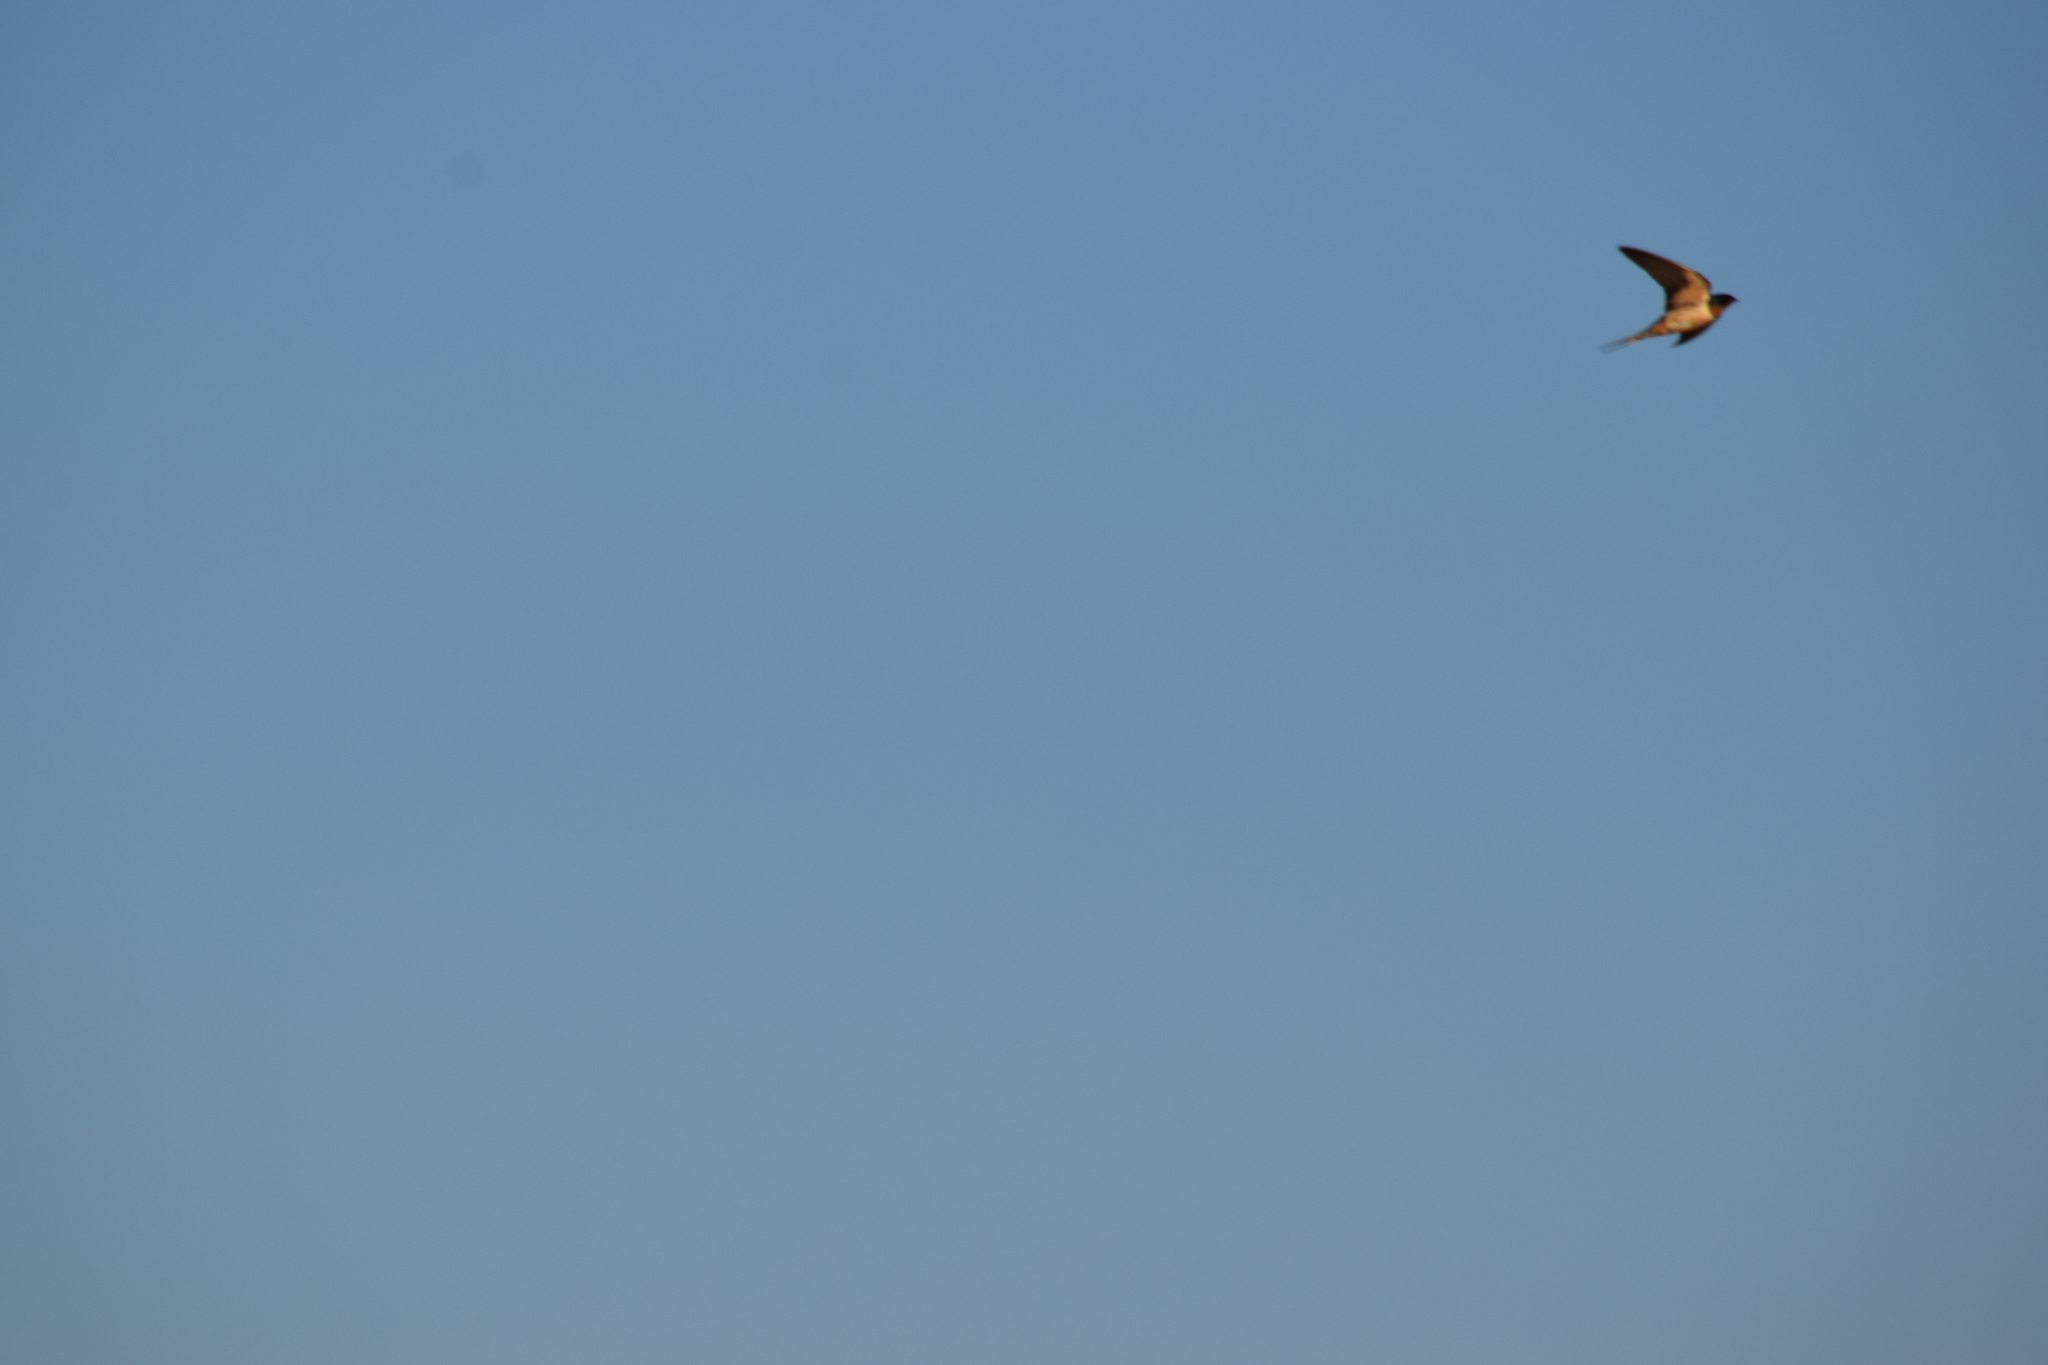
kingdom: Animalia
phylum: Chordata
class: Aves
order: Passeriformes
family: Hirundinidae
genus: Hirundo
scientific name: Hirundo rustica
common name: Barn swallow
